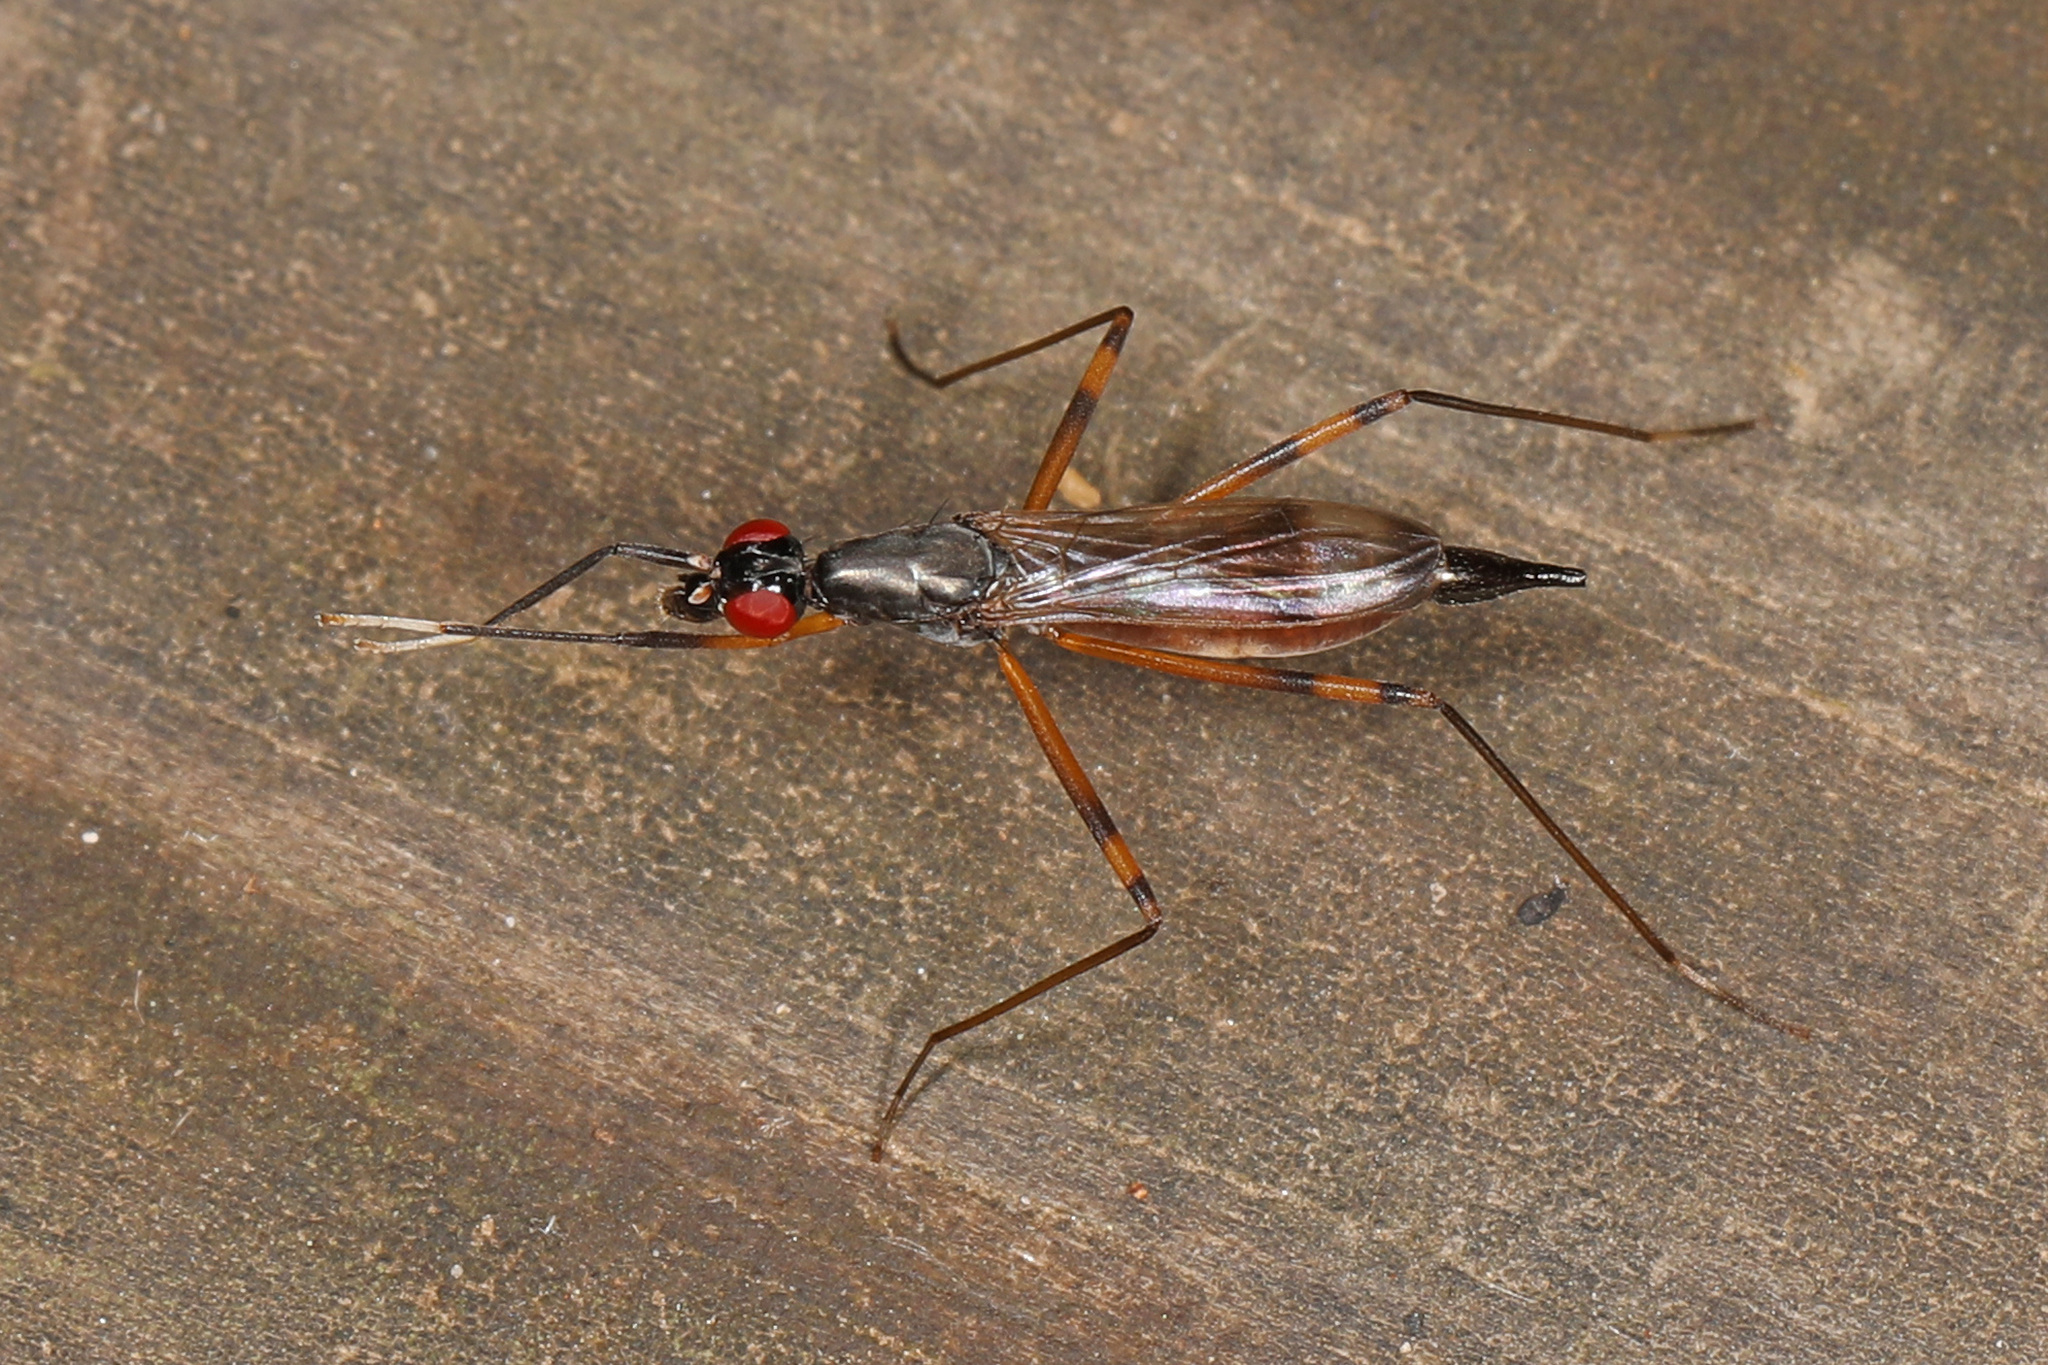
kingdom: Animalia
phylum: Arthropoda
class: Insecta
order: Diptera
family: Micropezidae
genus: Rainieria
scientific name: Rainieria antennaepes
